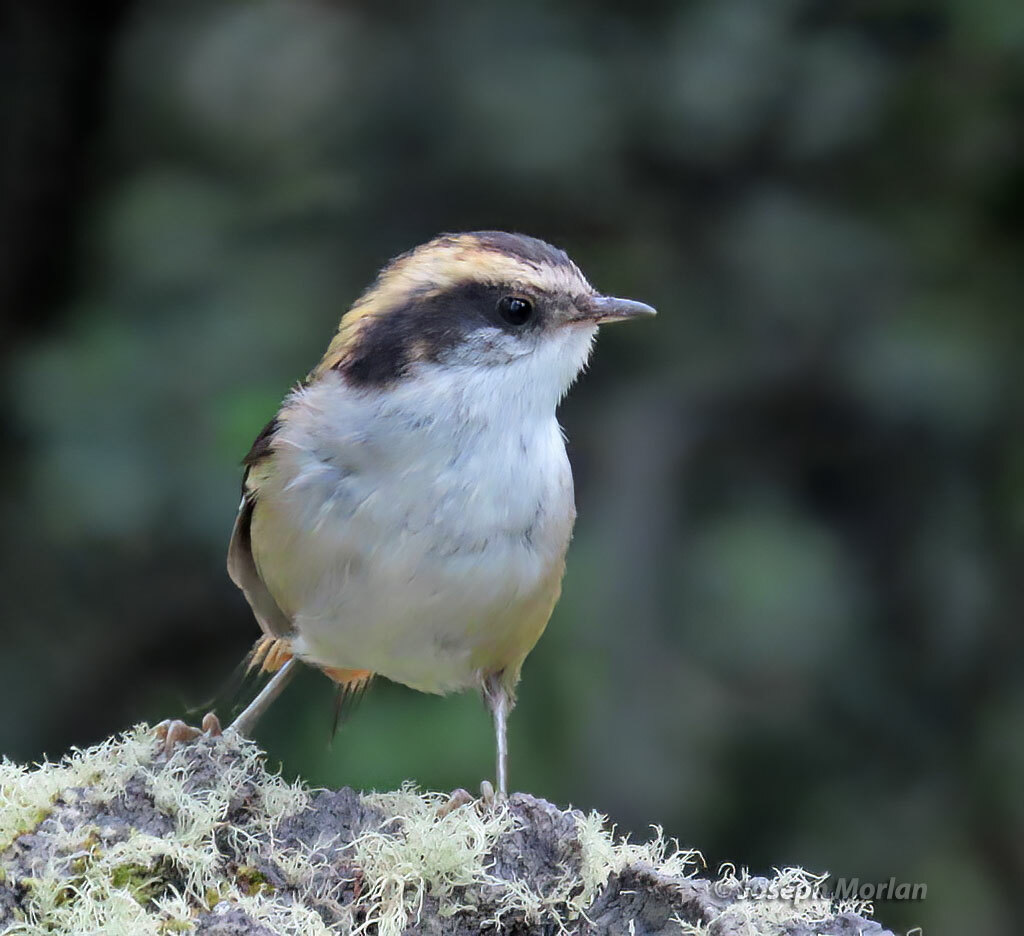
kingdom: Animalia
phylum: Chordata
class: Aves
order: Passeriformes
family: Furnariidae
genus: Aphrastura
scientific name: Aphrastura spinicauda
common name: Thorn-tailed rayadito
